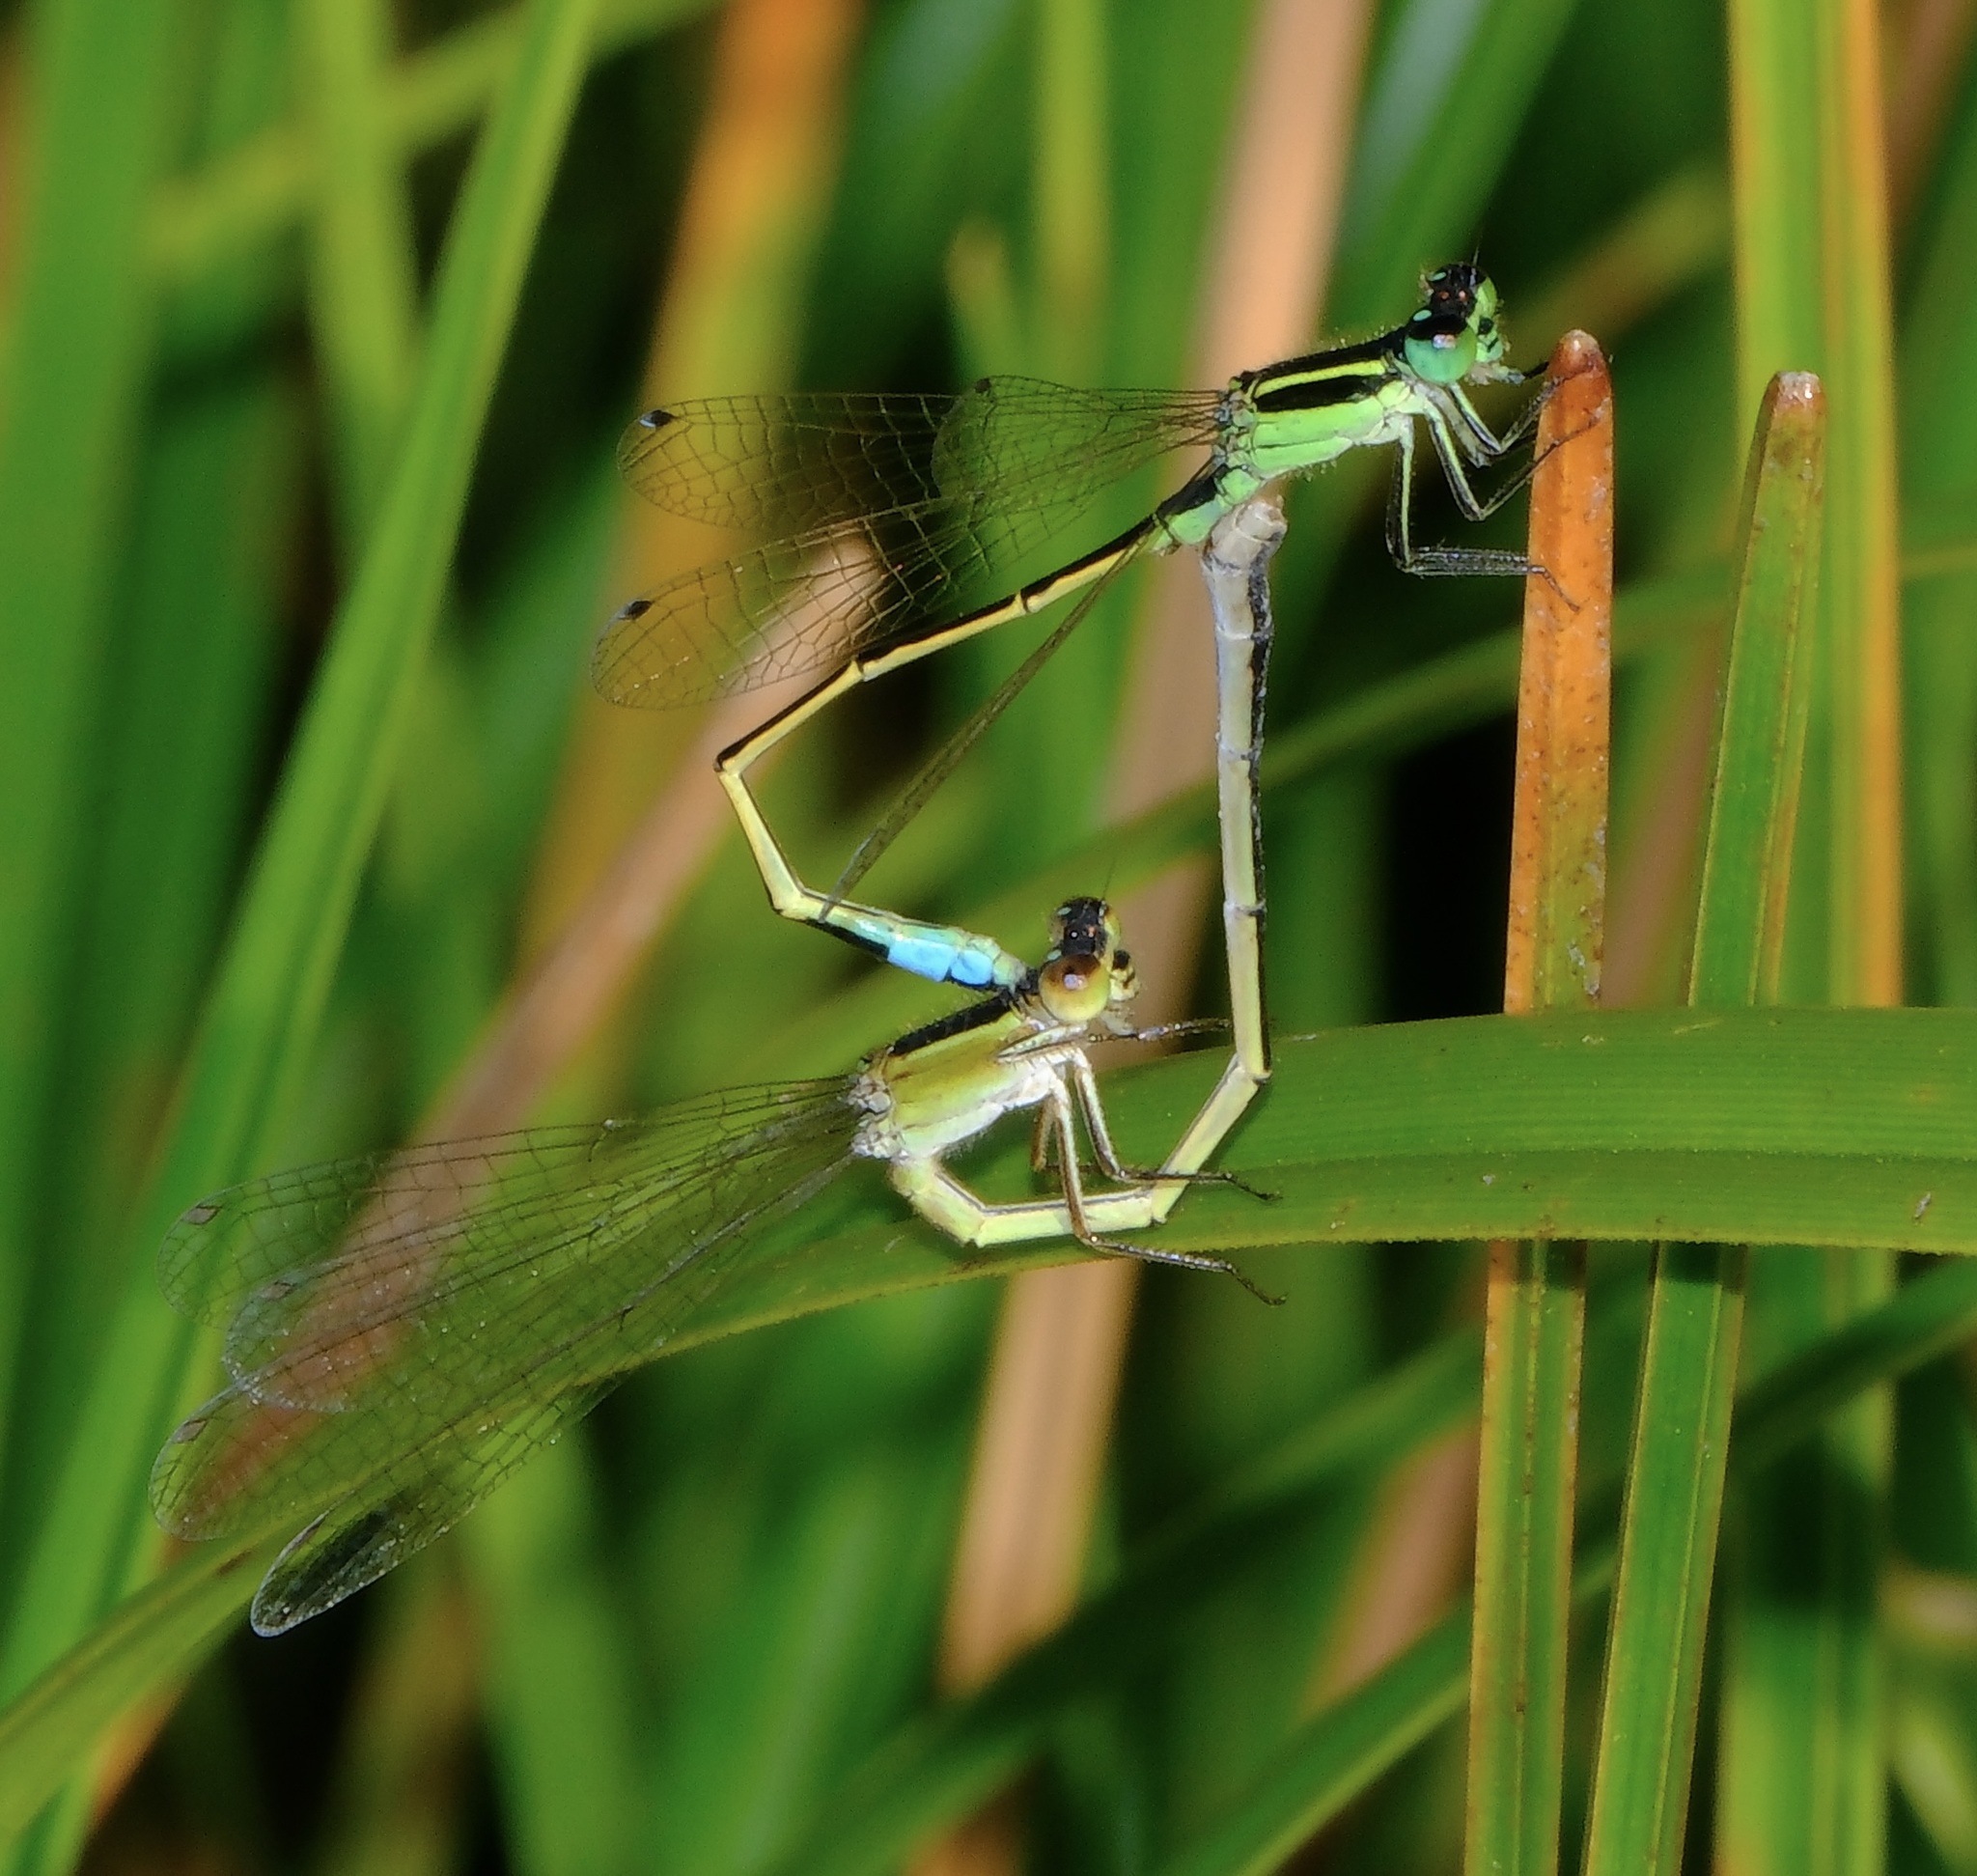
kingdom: Animalia
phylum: Arthropoda
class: Insecta
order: Odonata
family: Coenagrionidae
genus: Ischnura
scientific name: Ischnura ramburii
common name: Rambur's forktail
